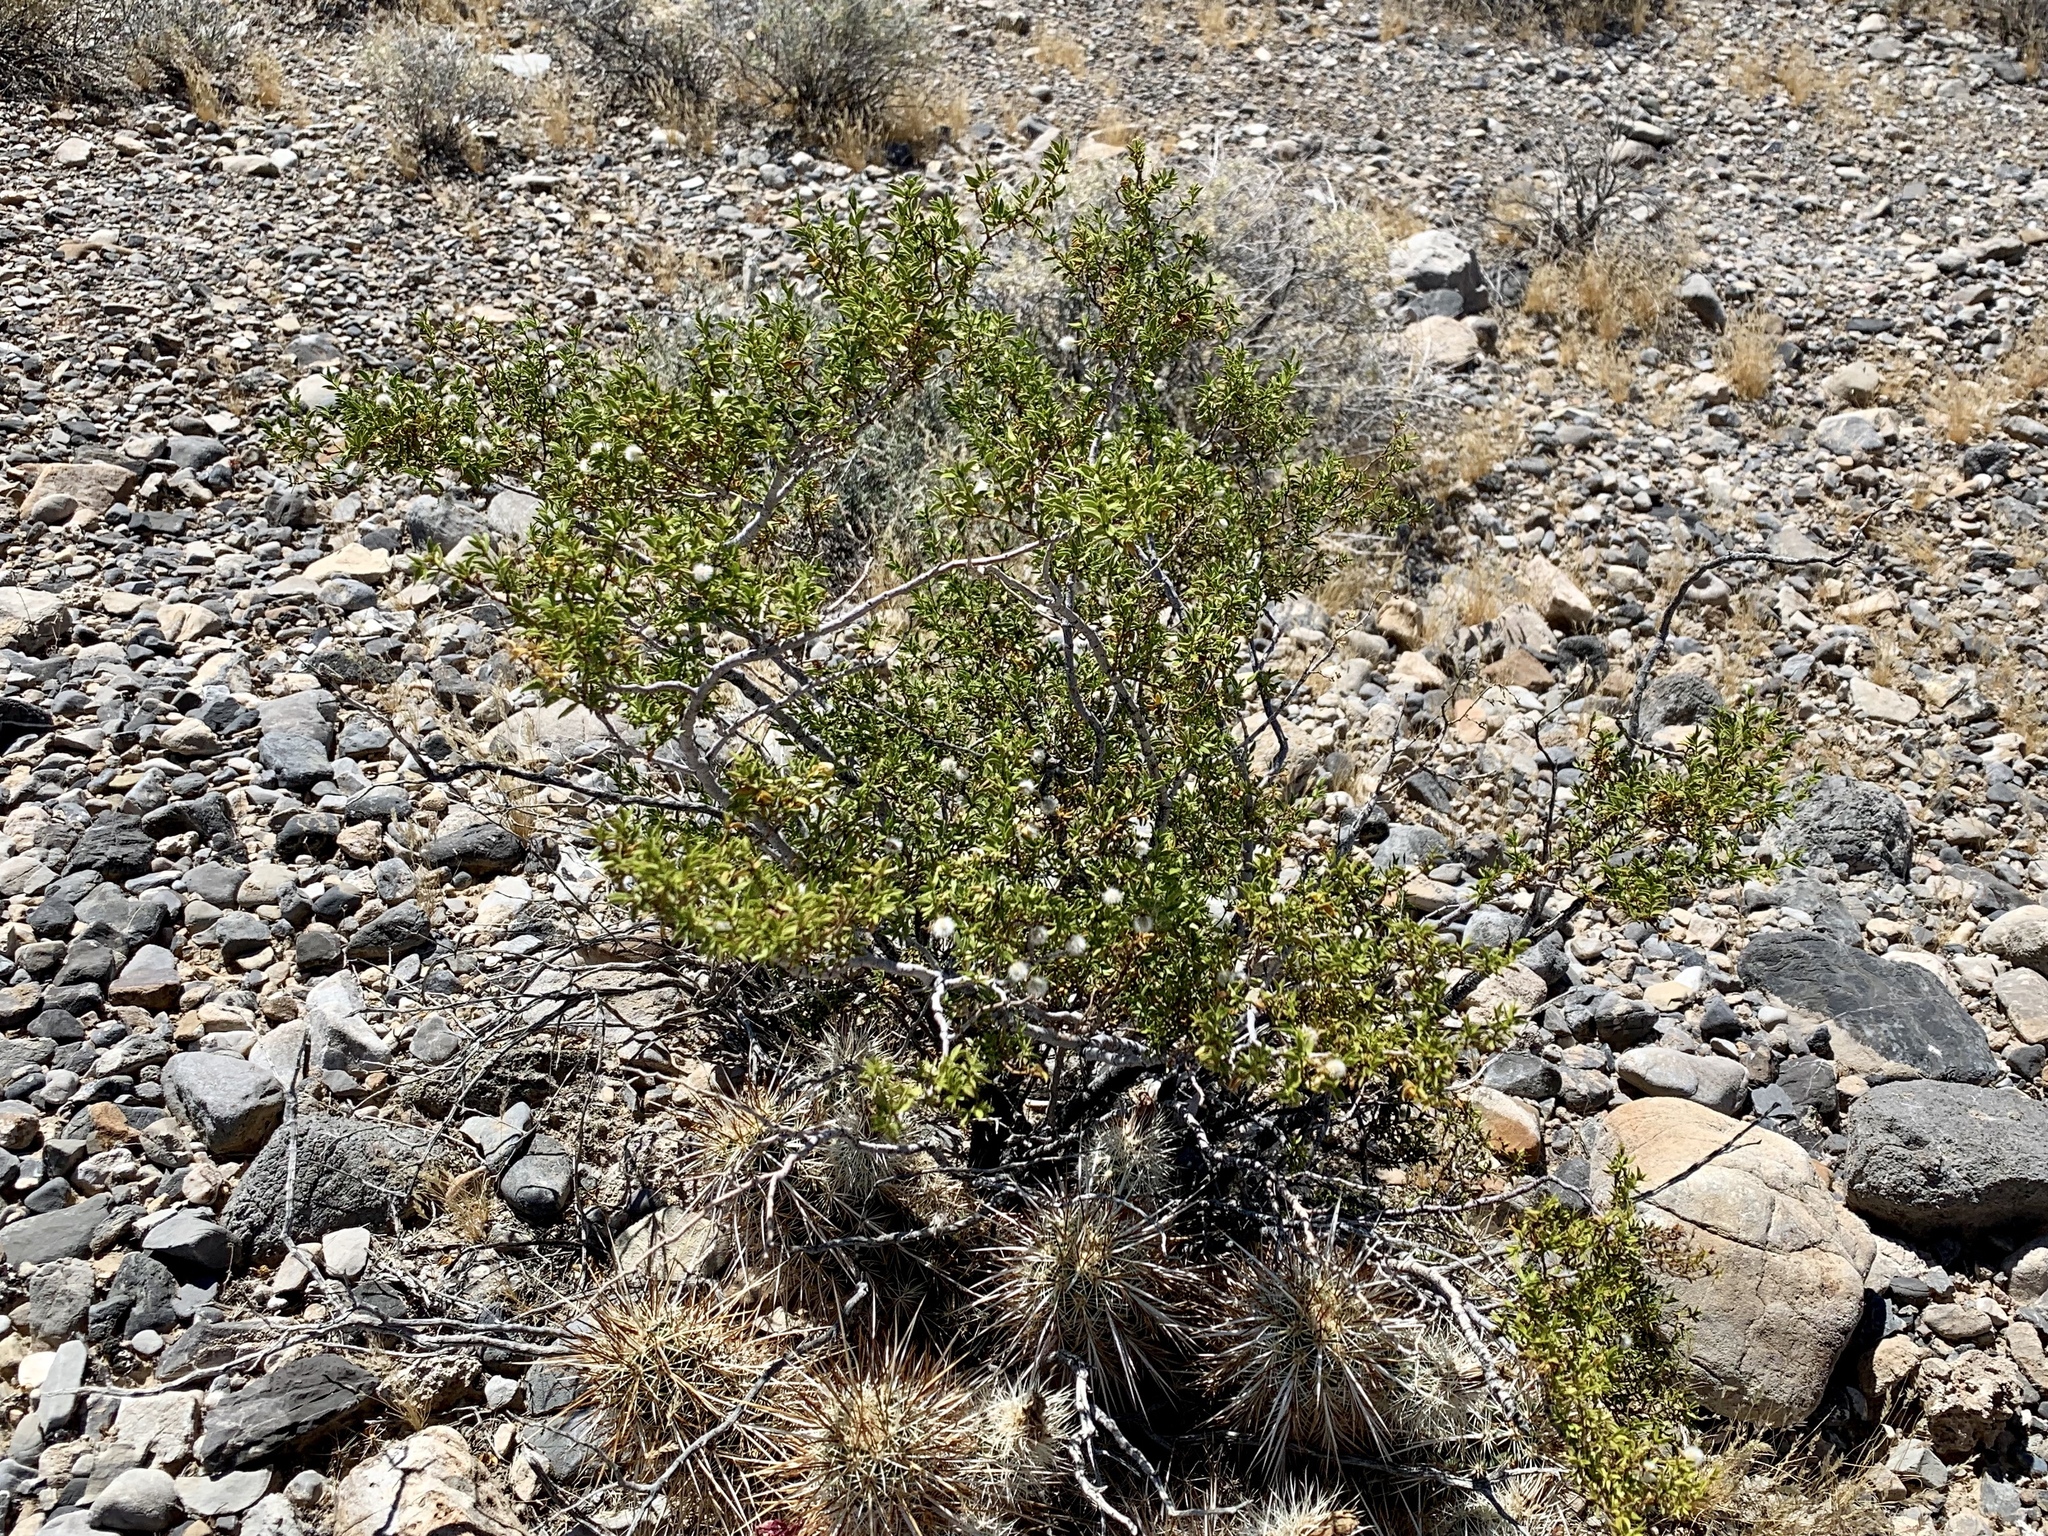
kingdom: Plantae
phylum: Tracheophyta
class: Magnoliopsida
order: Zygophyllales
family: Zygophyllaceae
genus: Larrea
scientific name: Larrea tridentata
